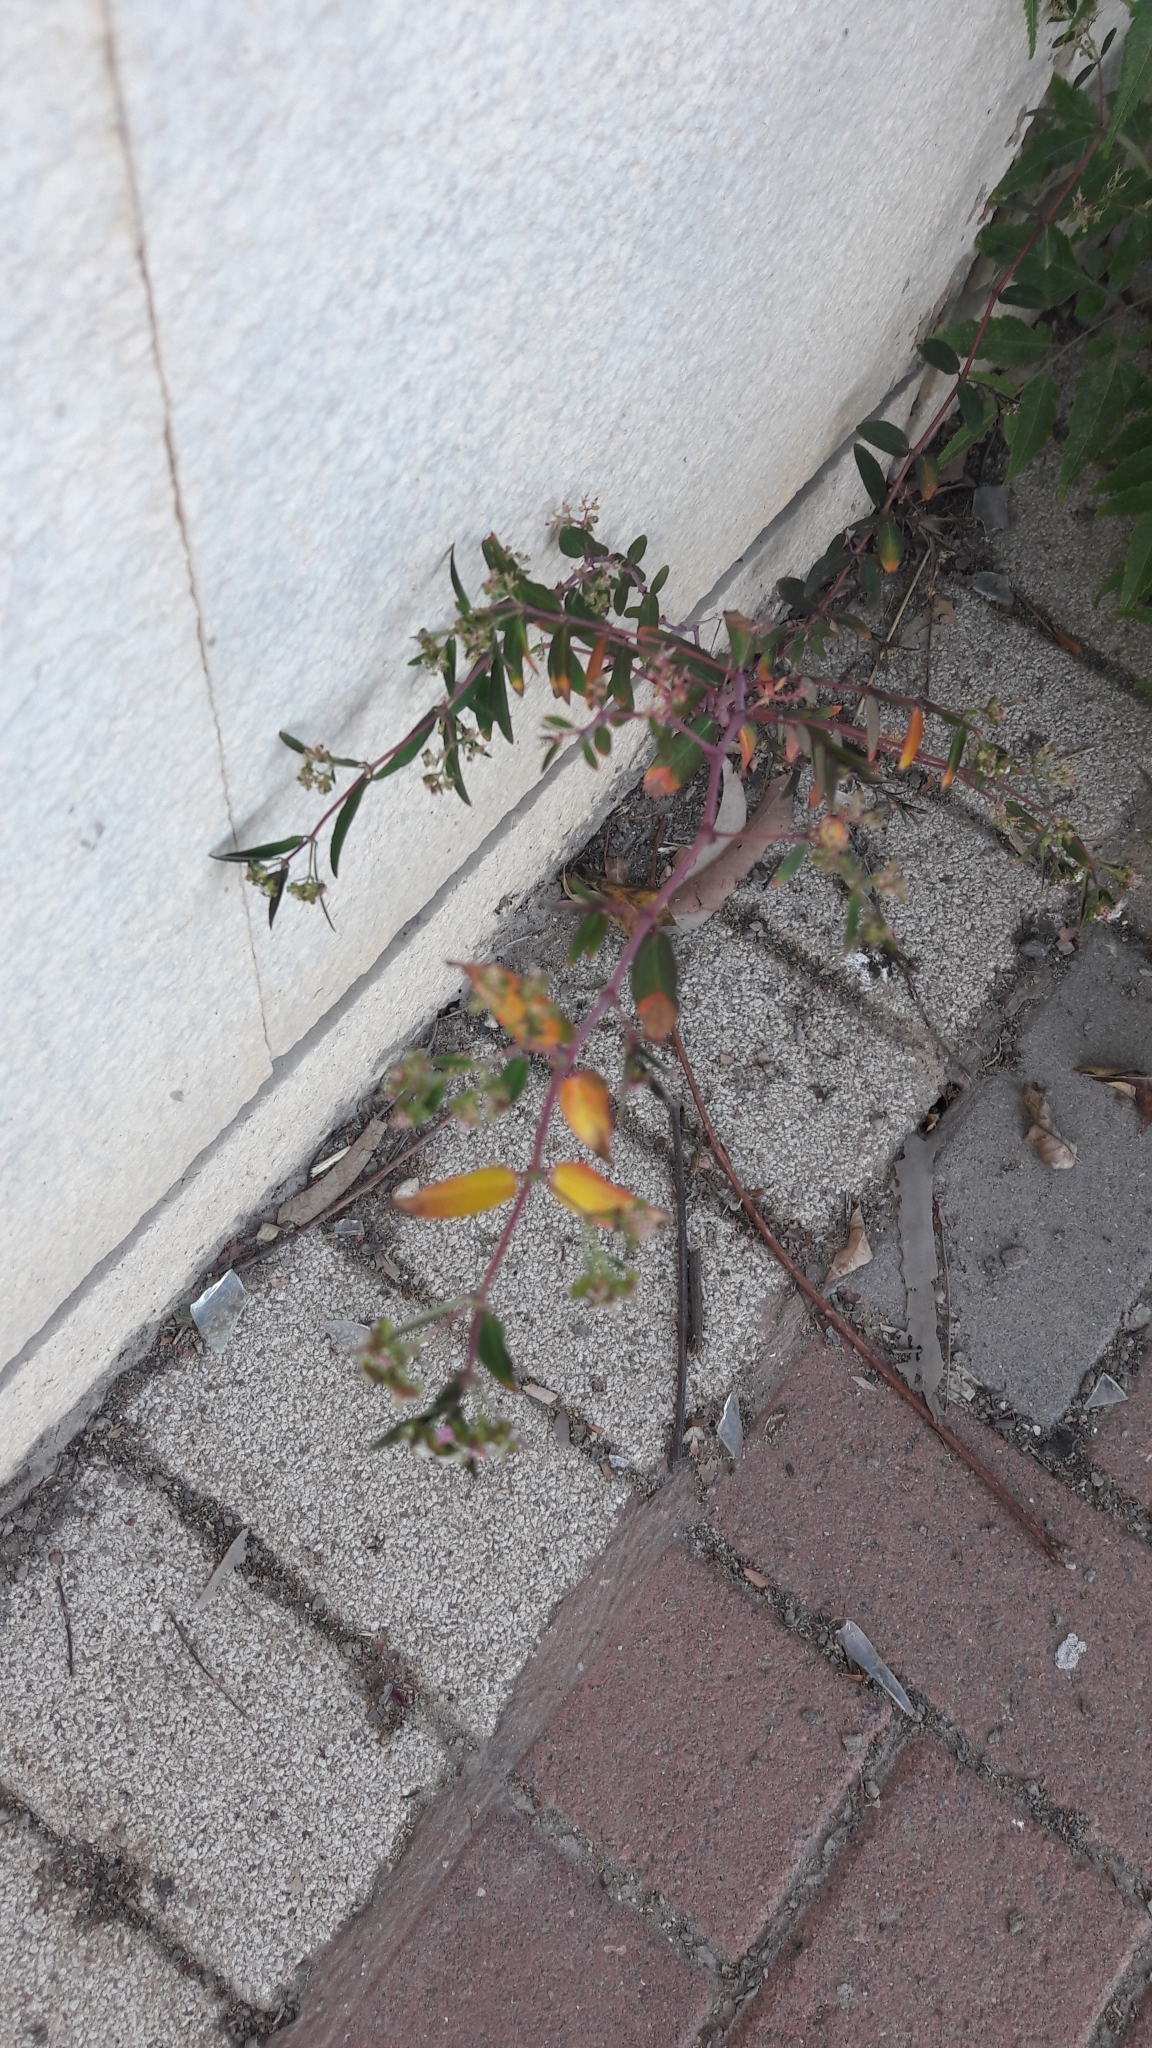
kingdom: Plantae
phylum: Tracheophyta
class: Magnoliopsida
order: Malpighiales
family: Euphorbiaceae
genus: Euphorbia
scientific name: Euphorbia hypericifolia
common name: Graceful sandmat
